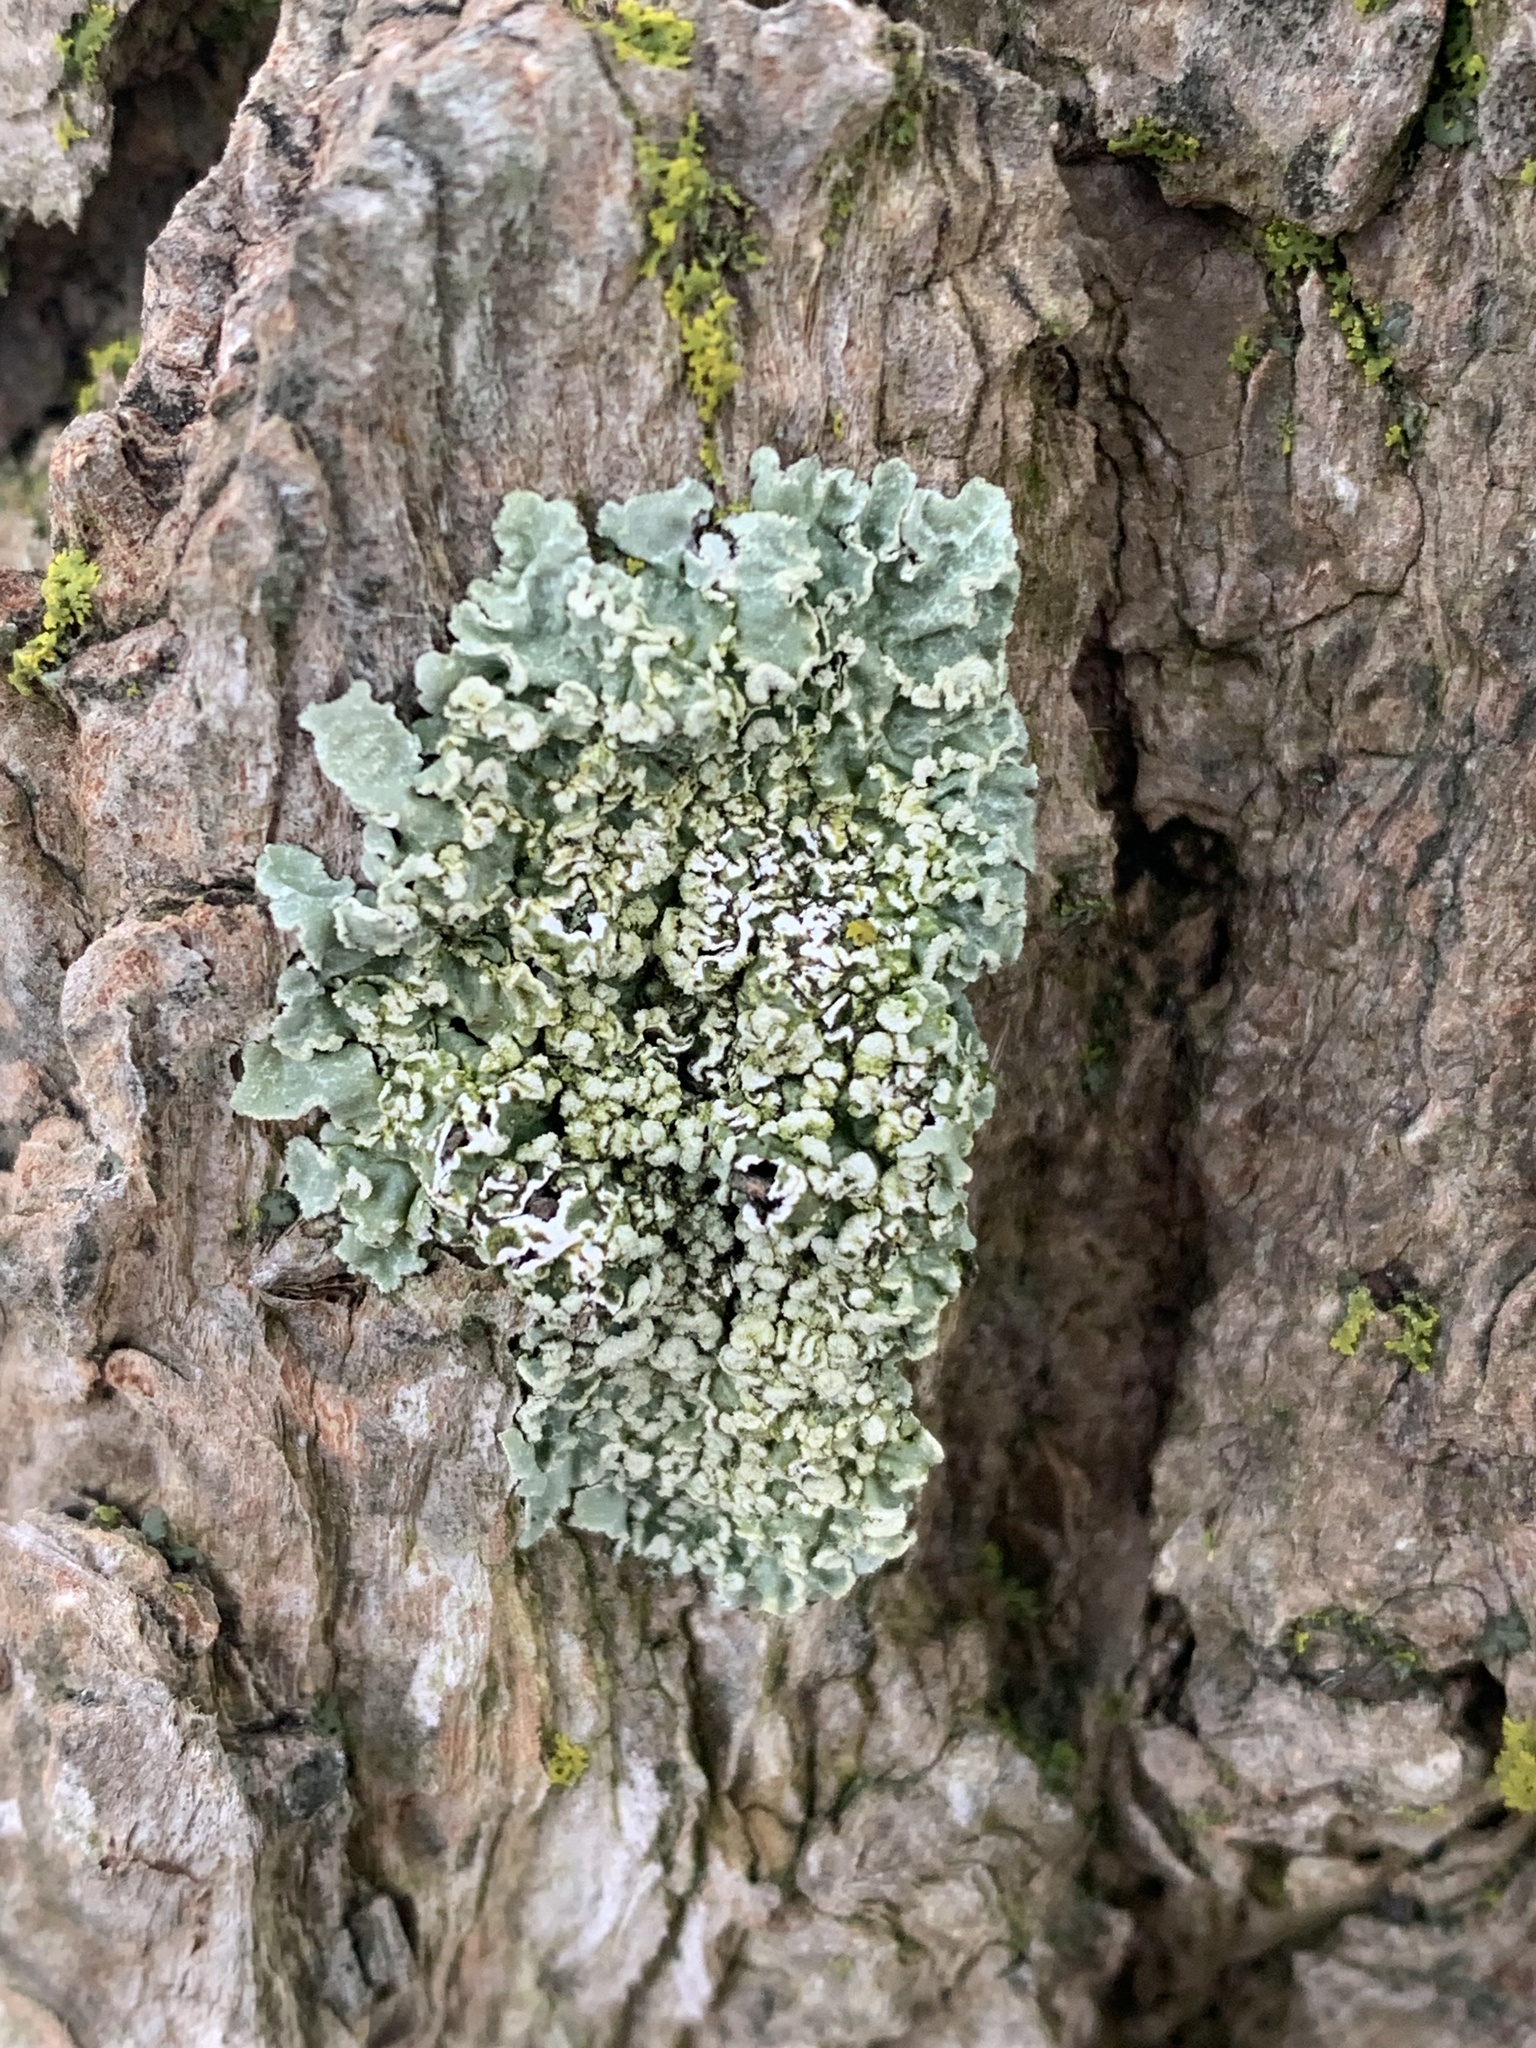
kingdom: Fungi
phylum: Ascomycota
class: Lecanoromycetes
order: Lecanorales
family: Parmeliaceae
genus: Flavopunctelia
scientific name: Flavopunctelia soredica
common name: Powder-edged speckled greenshield
